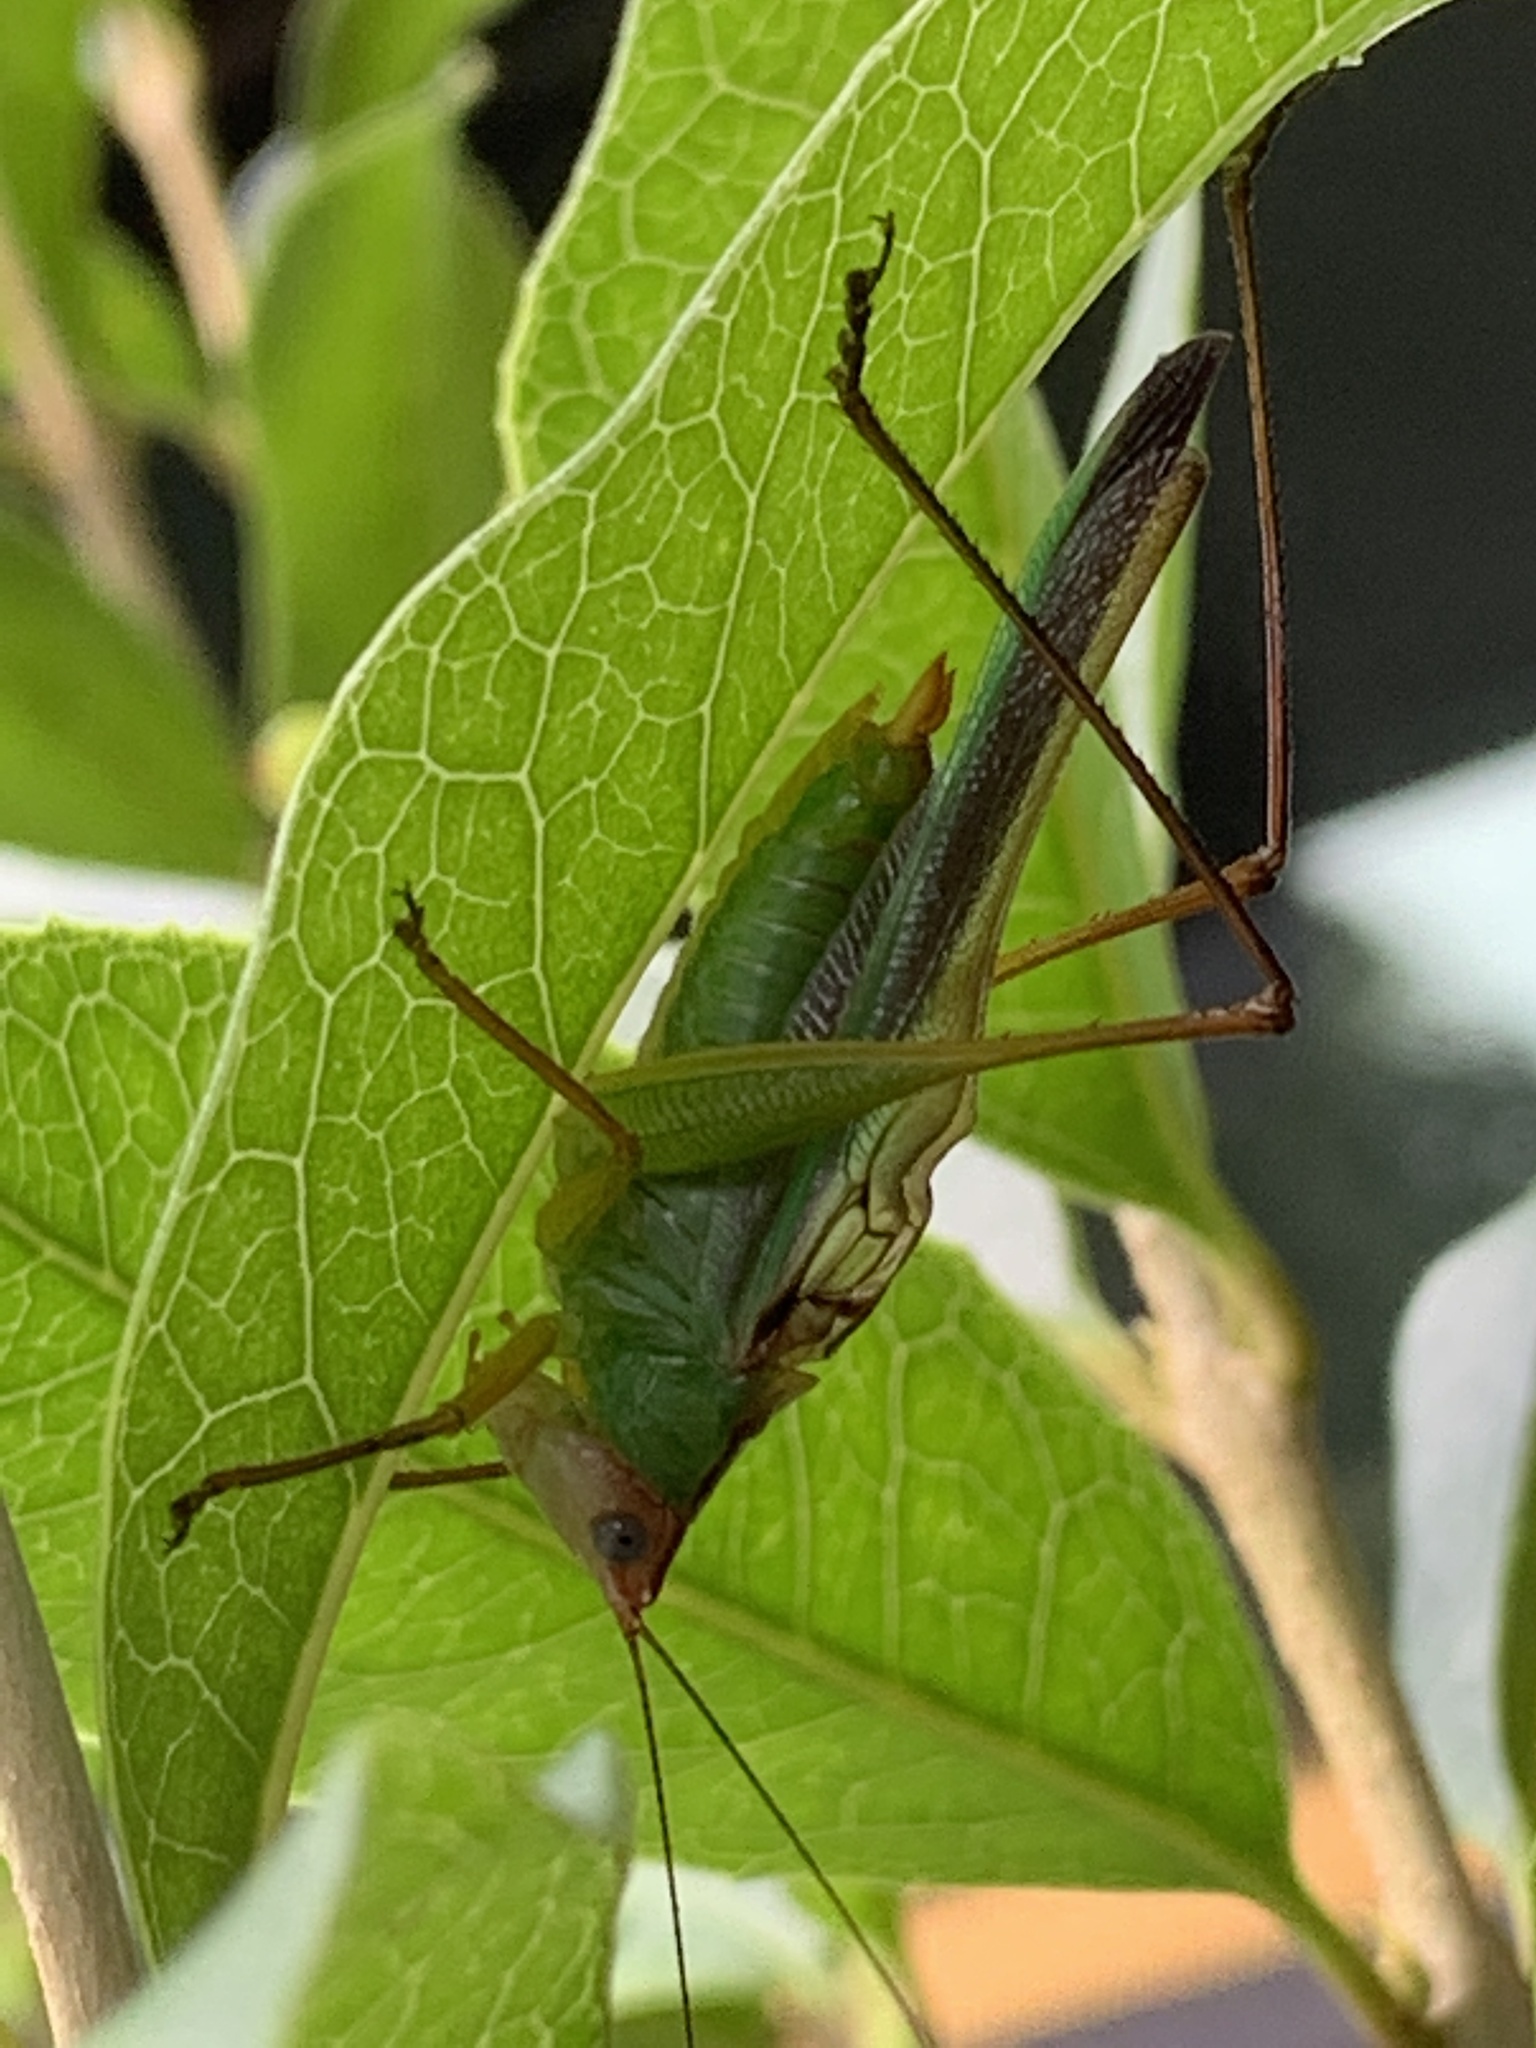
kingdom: Animalia
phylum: Arthropoda
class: Insecta
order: Orthoptera
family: Tettigoniidae
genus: Orchelimum
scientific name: Orchelimum pulchellum
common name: Handsome meadow katydid
